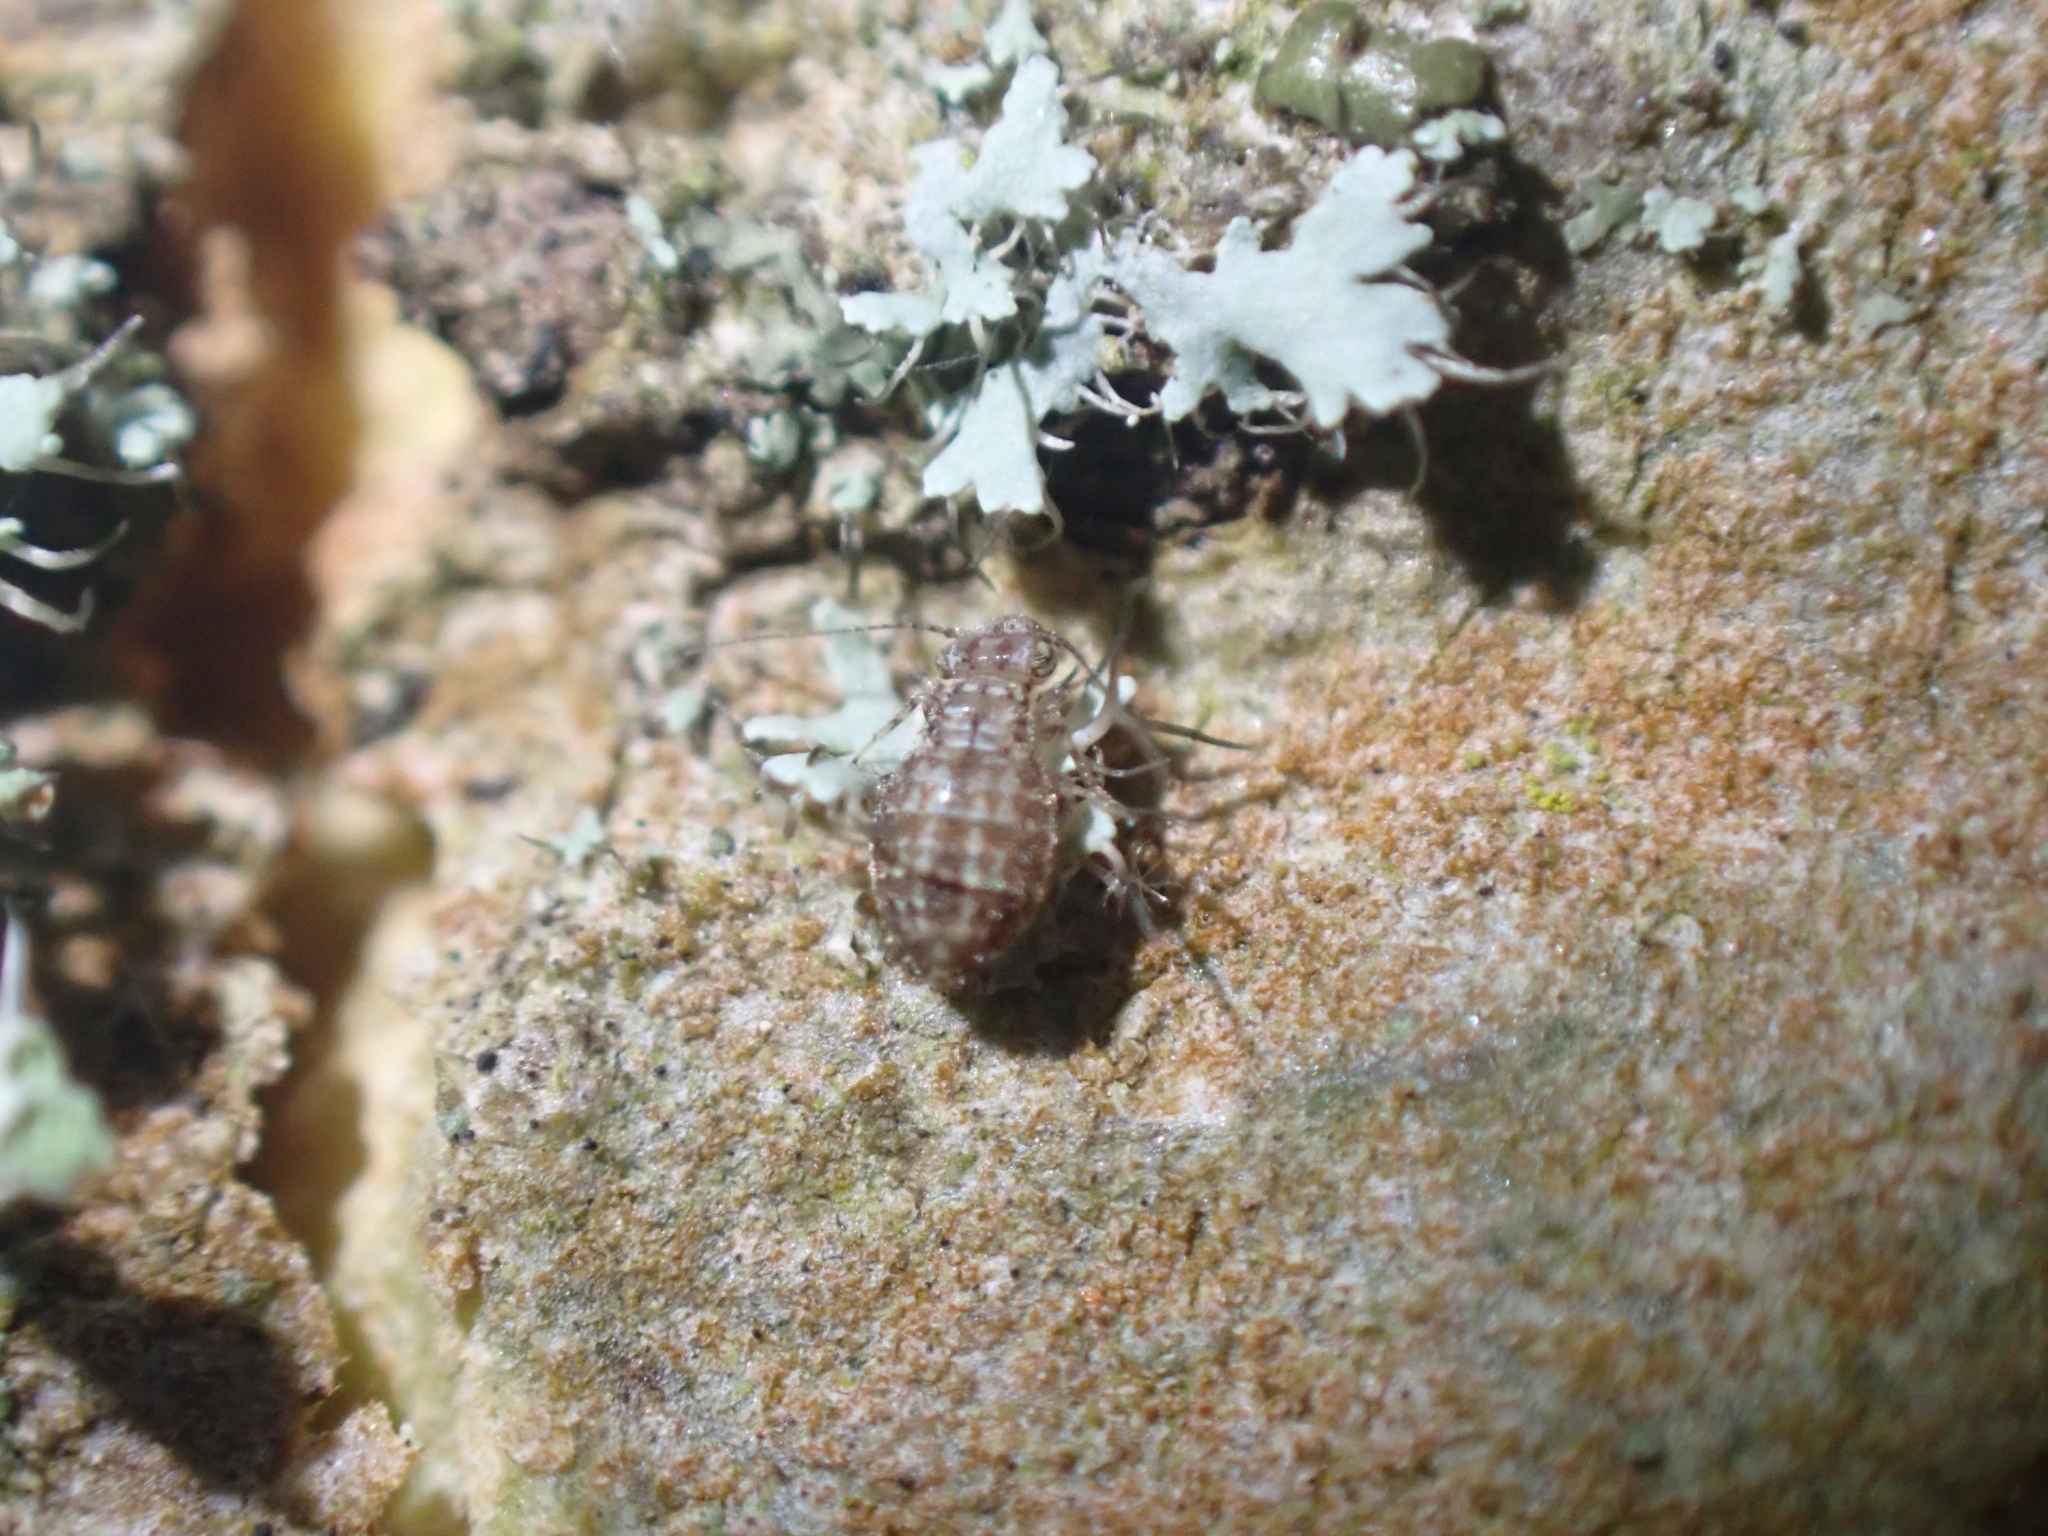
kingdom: Animalia
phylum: Arthropoda
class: Insecta
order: Psocodea
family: Trogiidae
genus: Cerobasis
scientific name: Cerobasis guestfalica
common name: Book lice
